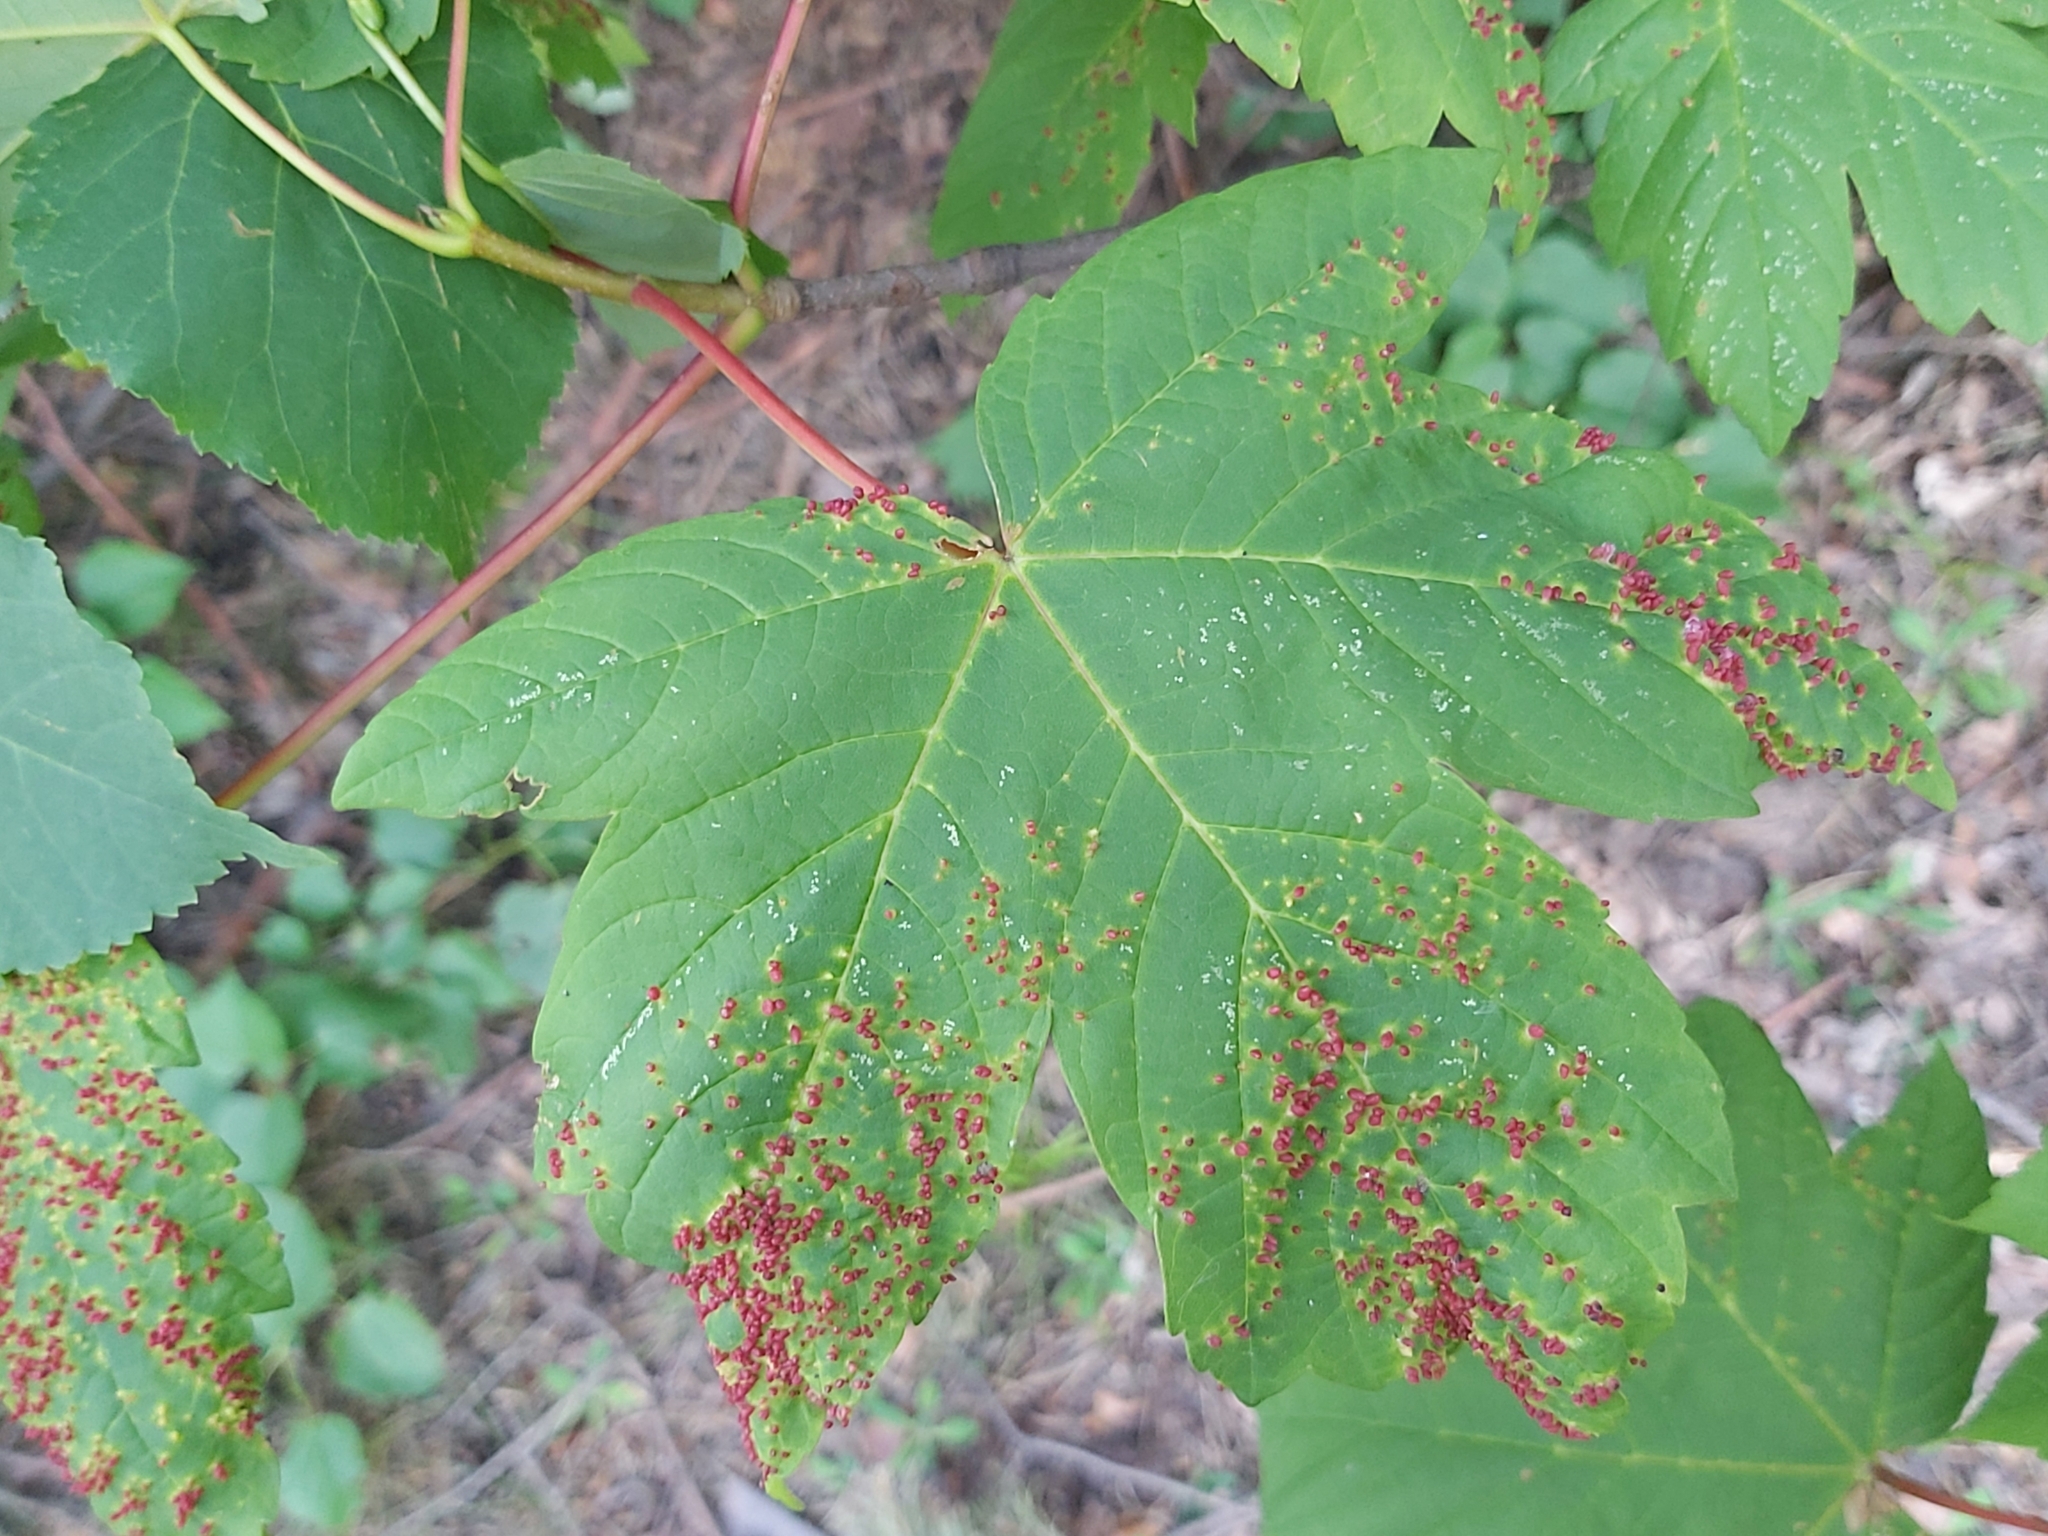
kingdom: Animalia
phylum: Arthropoda
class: Arachnida
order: Trombidiformes
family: Eriophyidae
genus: Aceria
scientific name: Aceria cephaloneus
